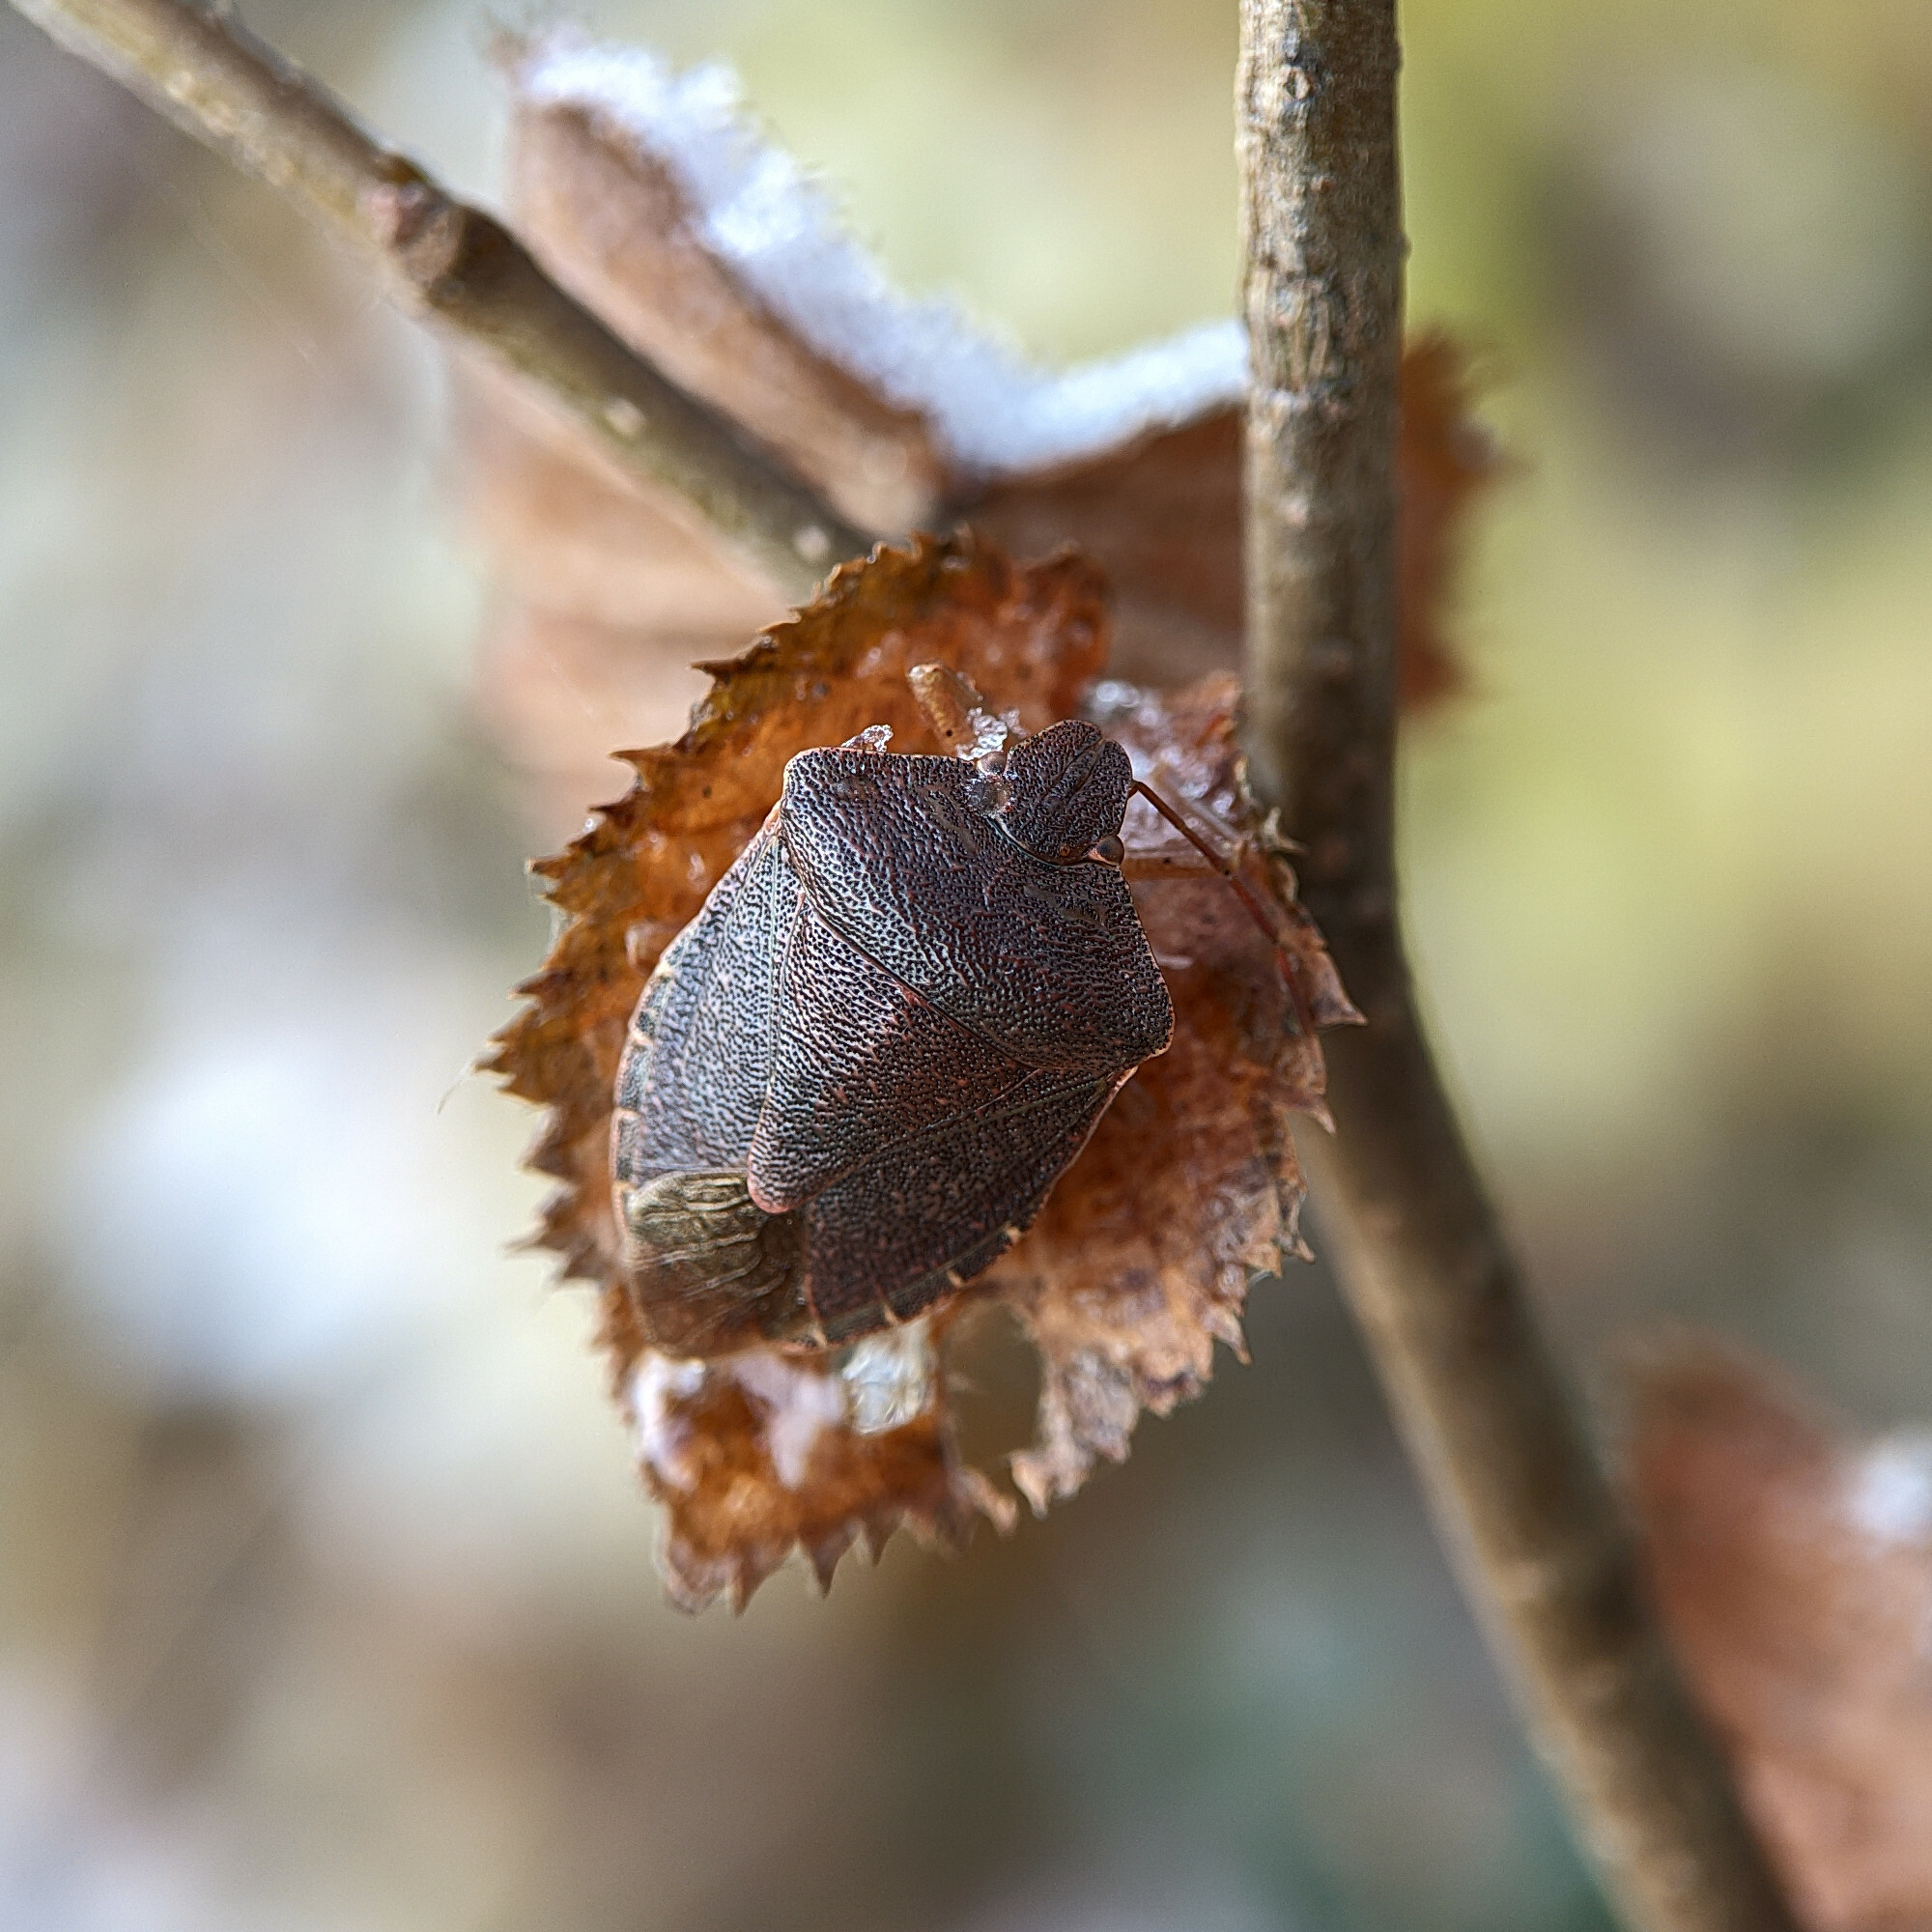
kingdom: Animalia
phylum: Arthropoda
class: Insecta
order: Hemiptera
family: Pentatomidae
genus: Palomena
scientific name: Palomena prasina
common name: Green shieldbug
